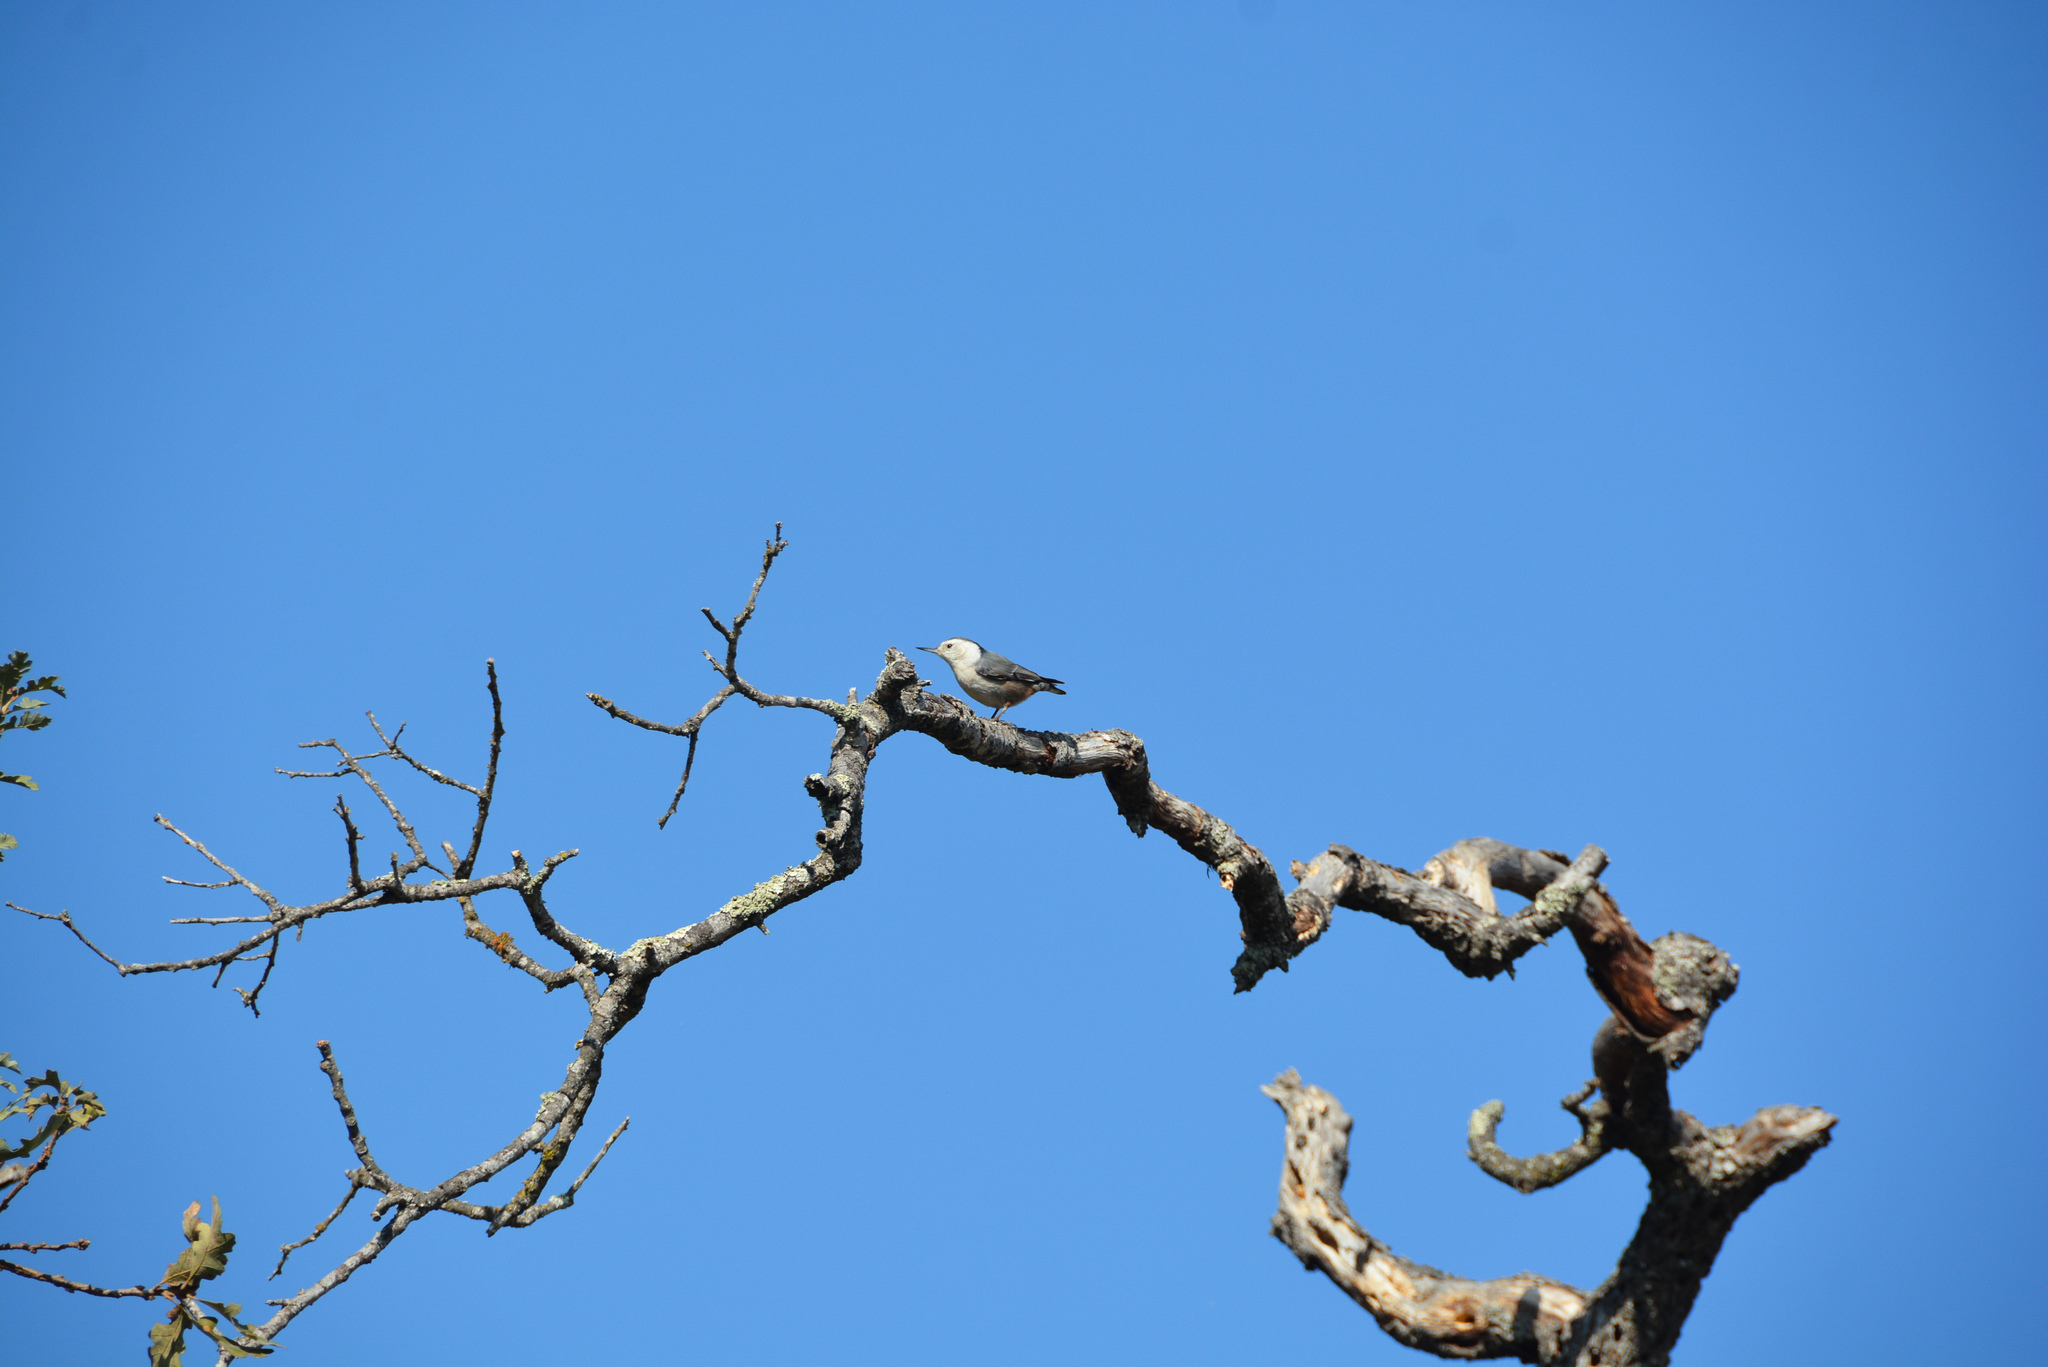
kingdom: Animalia
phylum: Chordata
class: Aves
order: Passeriformes
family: Sittidae
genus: Sitta
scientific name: Sitta carolinensis
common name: White-breasted nuthatch
